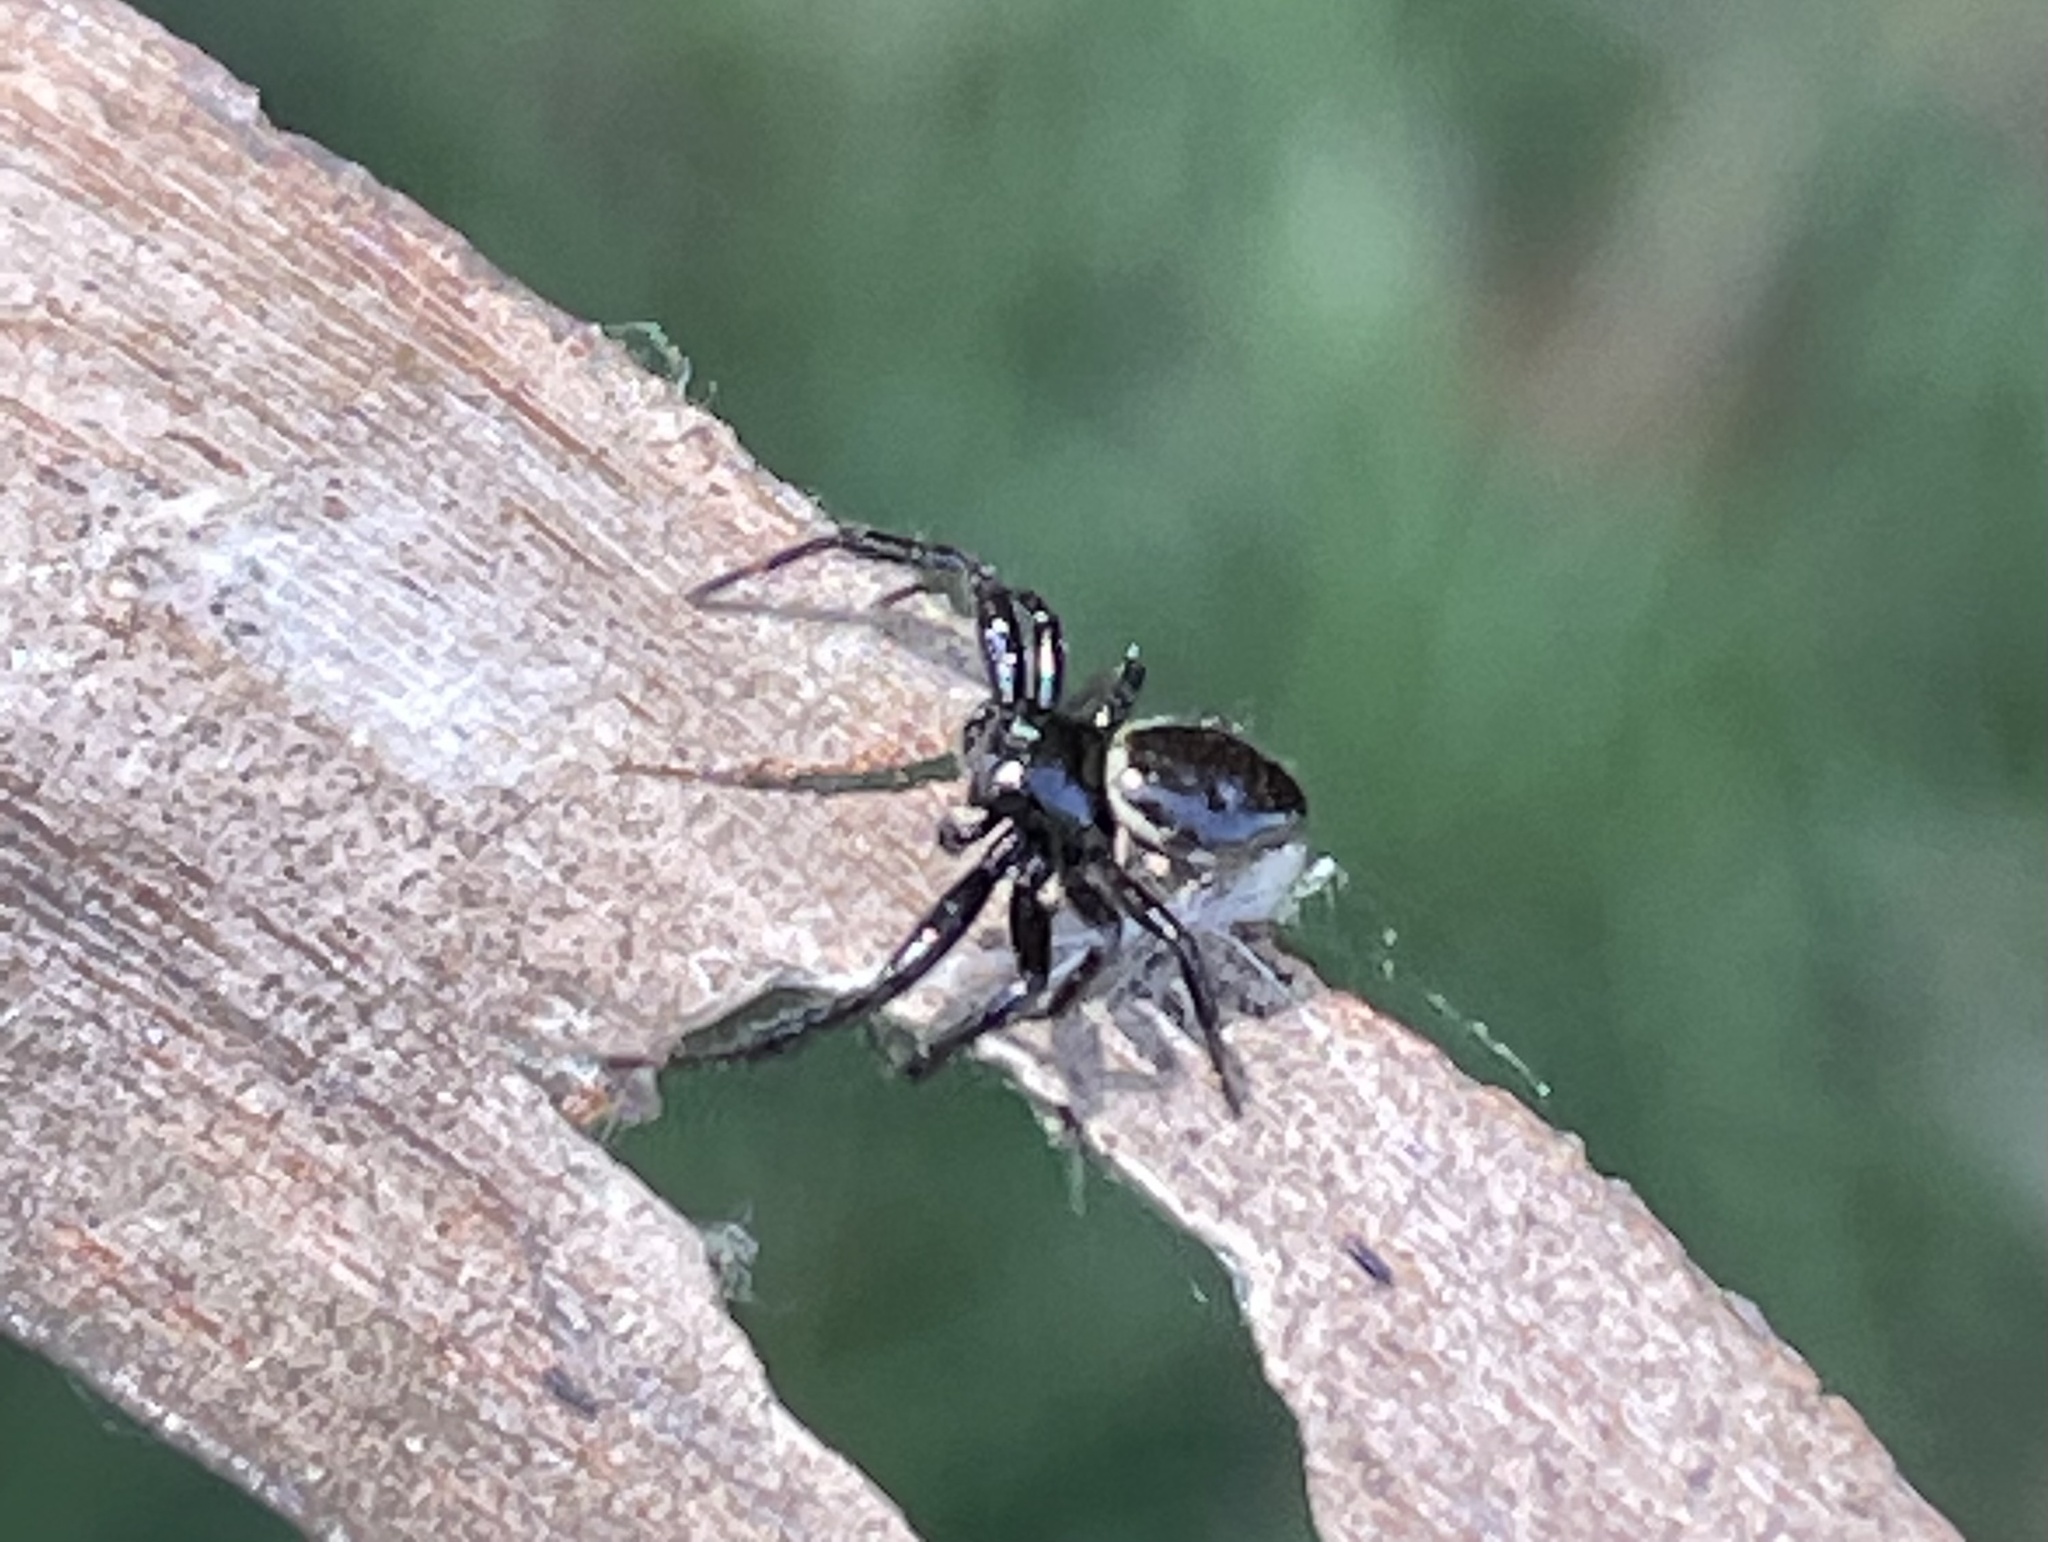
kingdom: Animalia
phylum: Arthropoda
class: Arachnida
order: Araneae
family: Thomisidae
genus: Xysticus
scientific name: Xysticus bimaculatus
